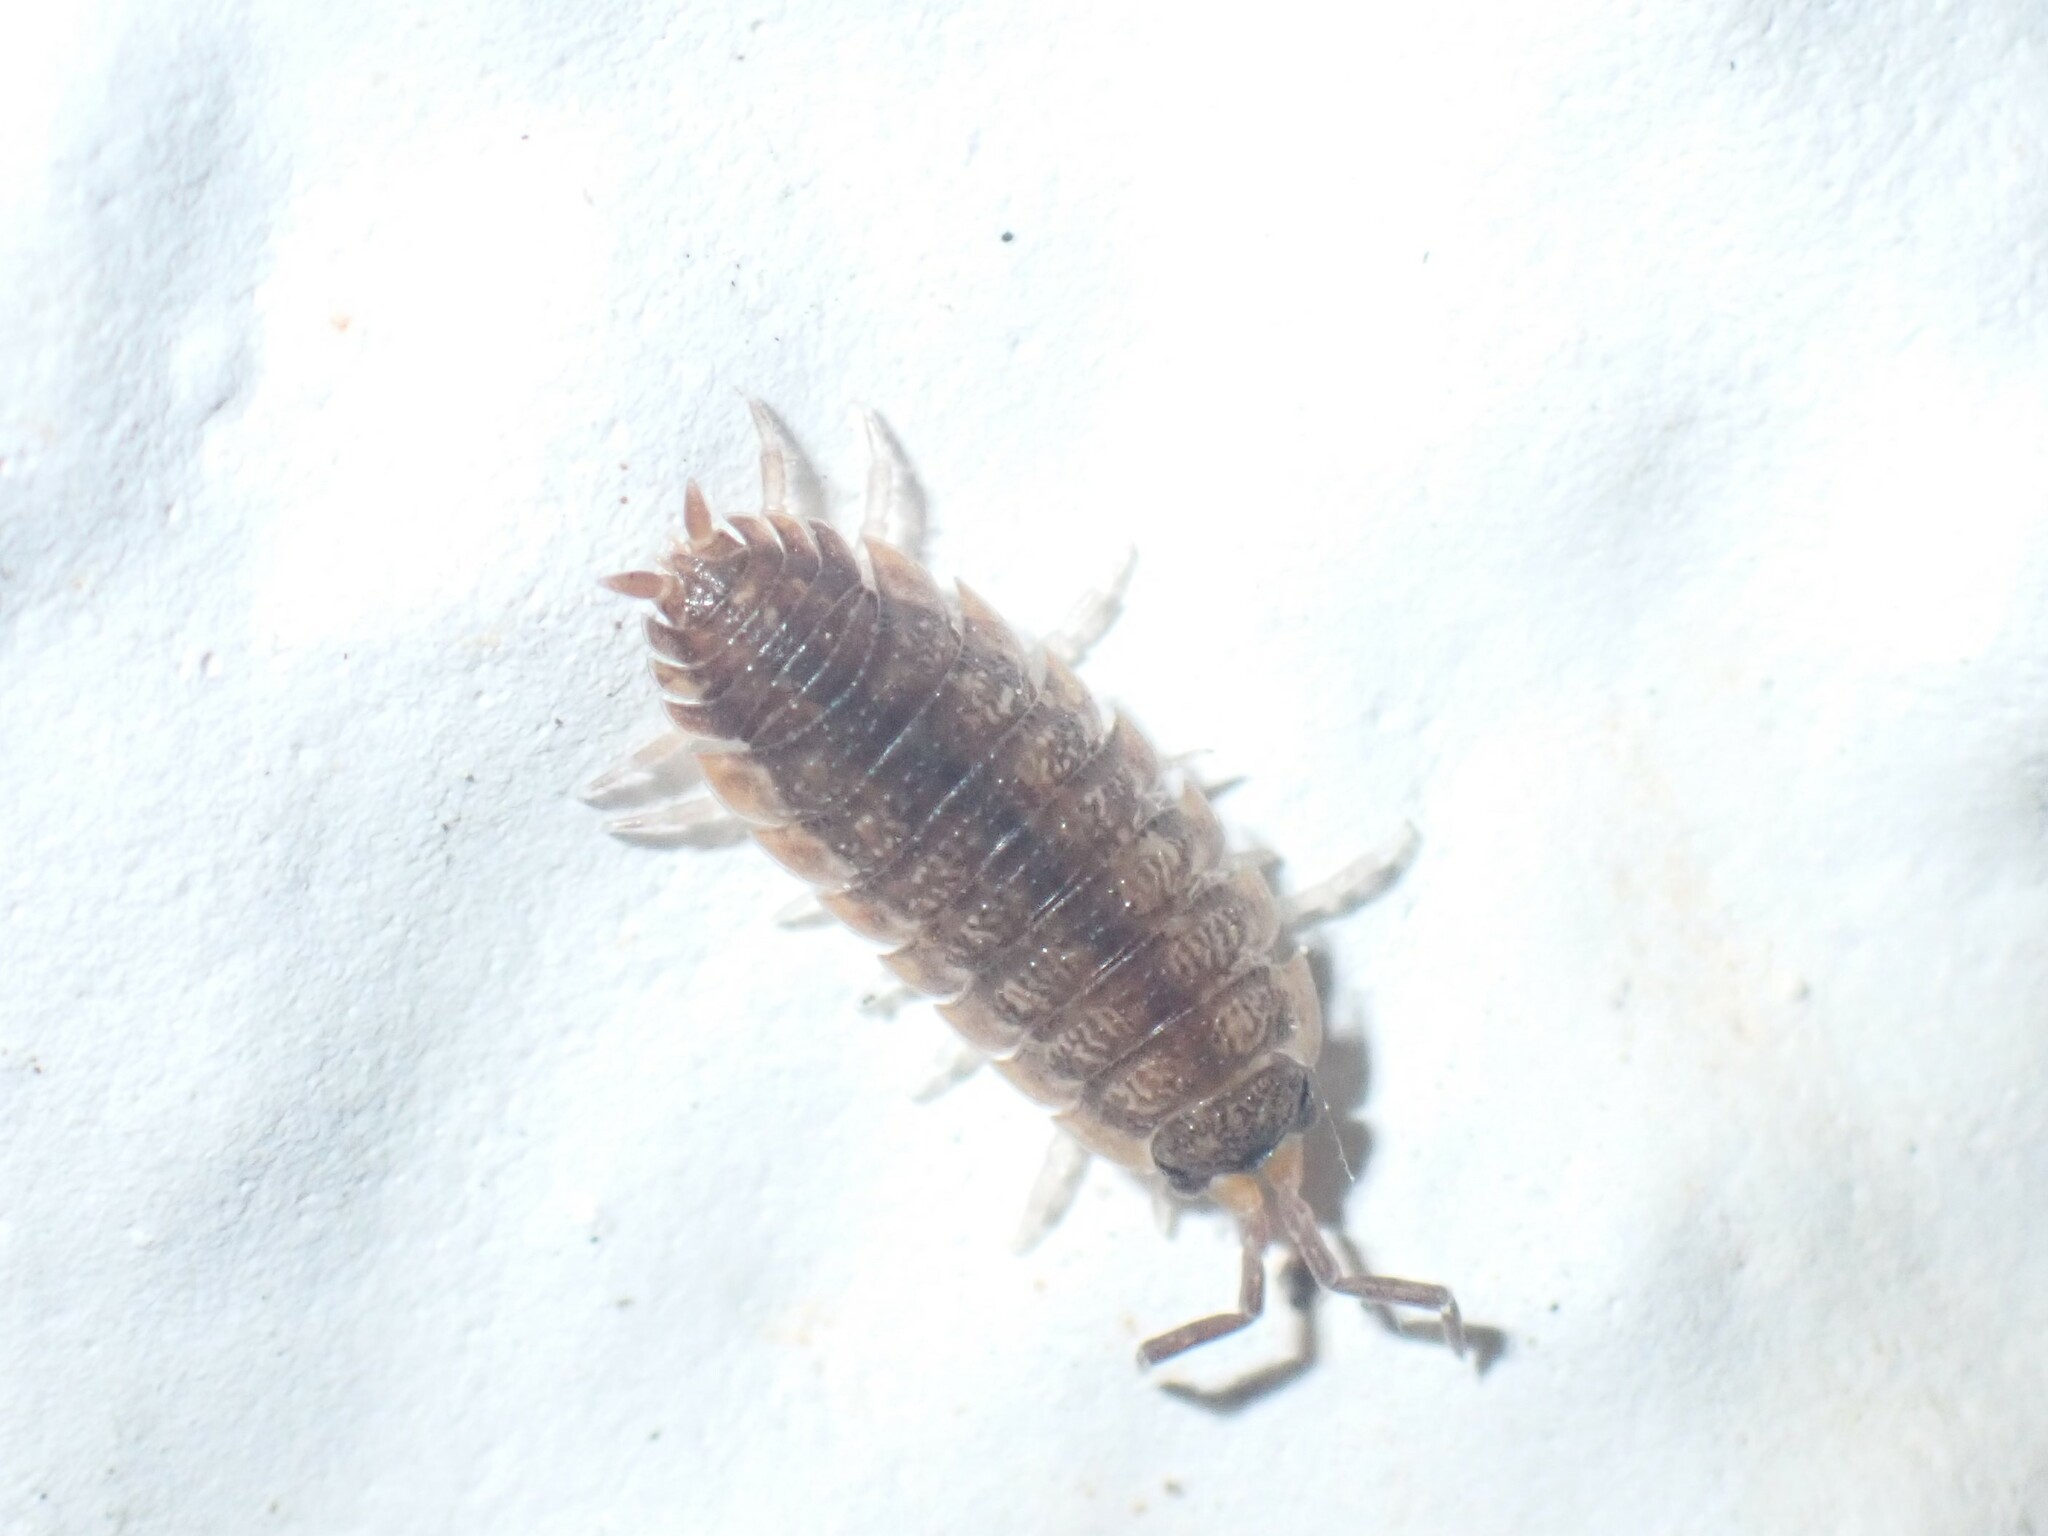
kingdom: Animalia
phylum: Arthropoda
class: Malacostraca
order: Isopoda
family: Porcellionidae
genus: Porcellio
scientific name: Porcellio scaber
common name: Common rough woodlouse
